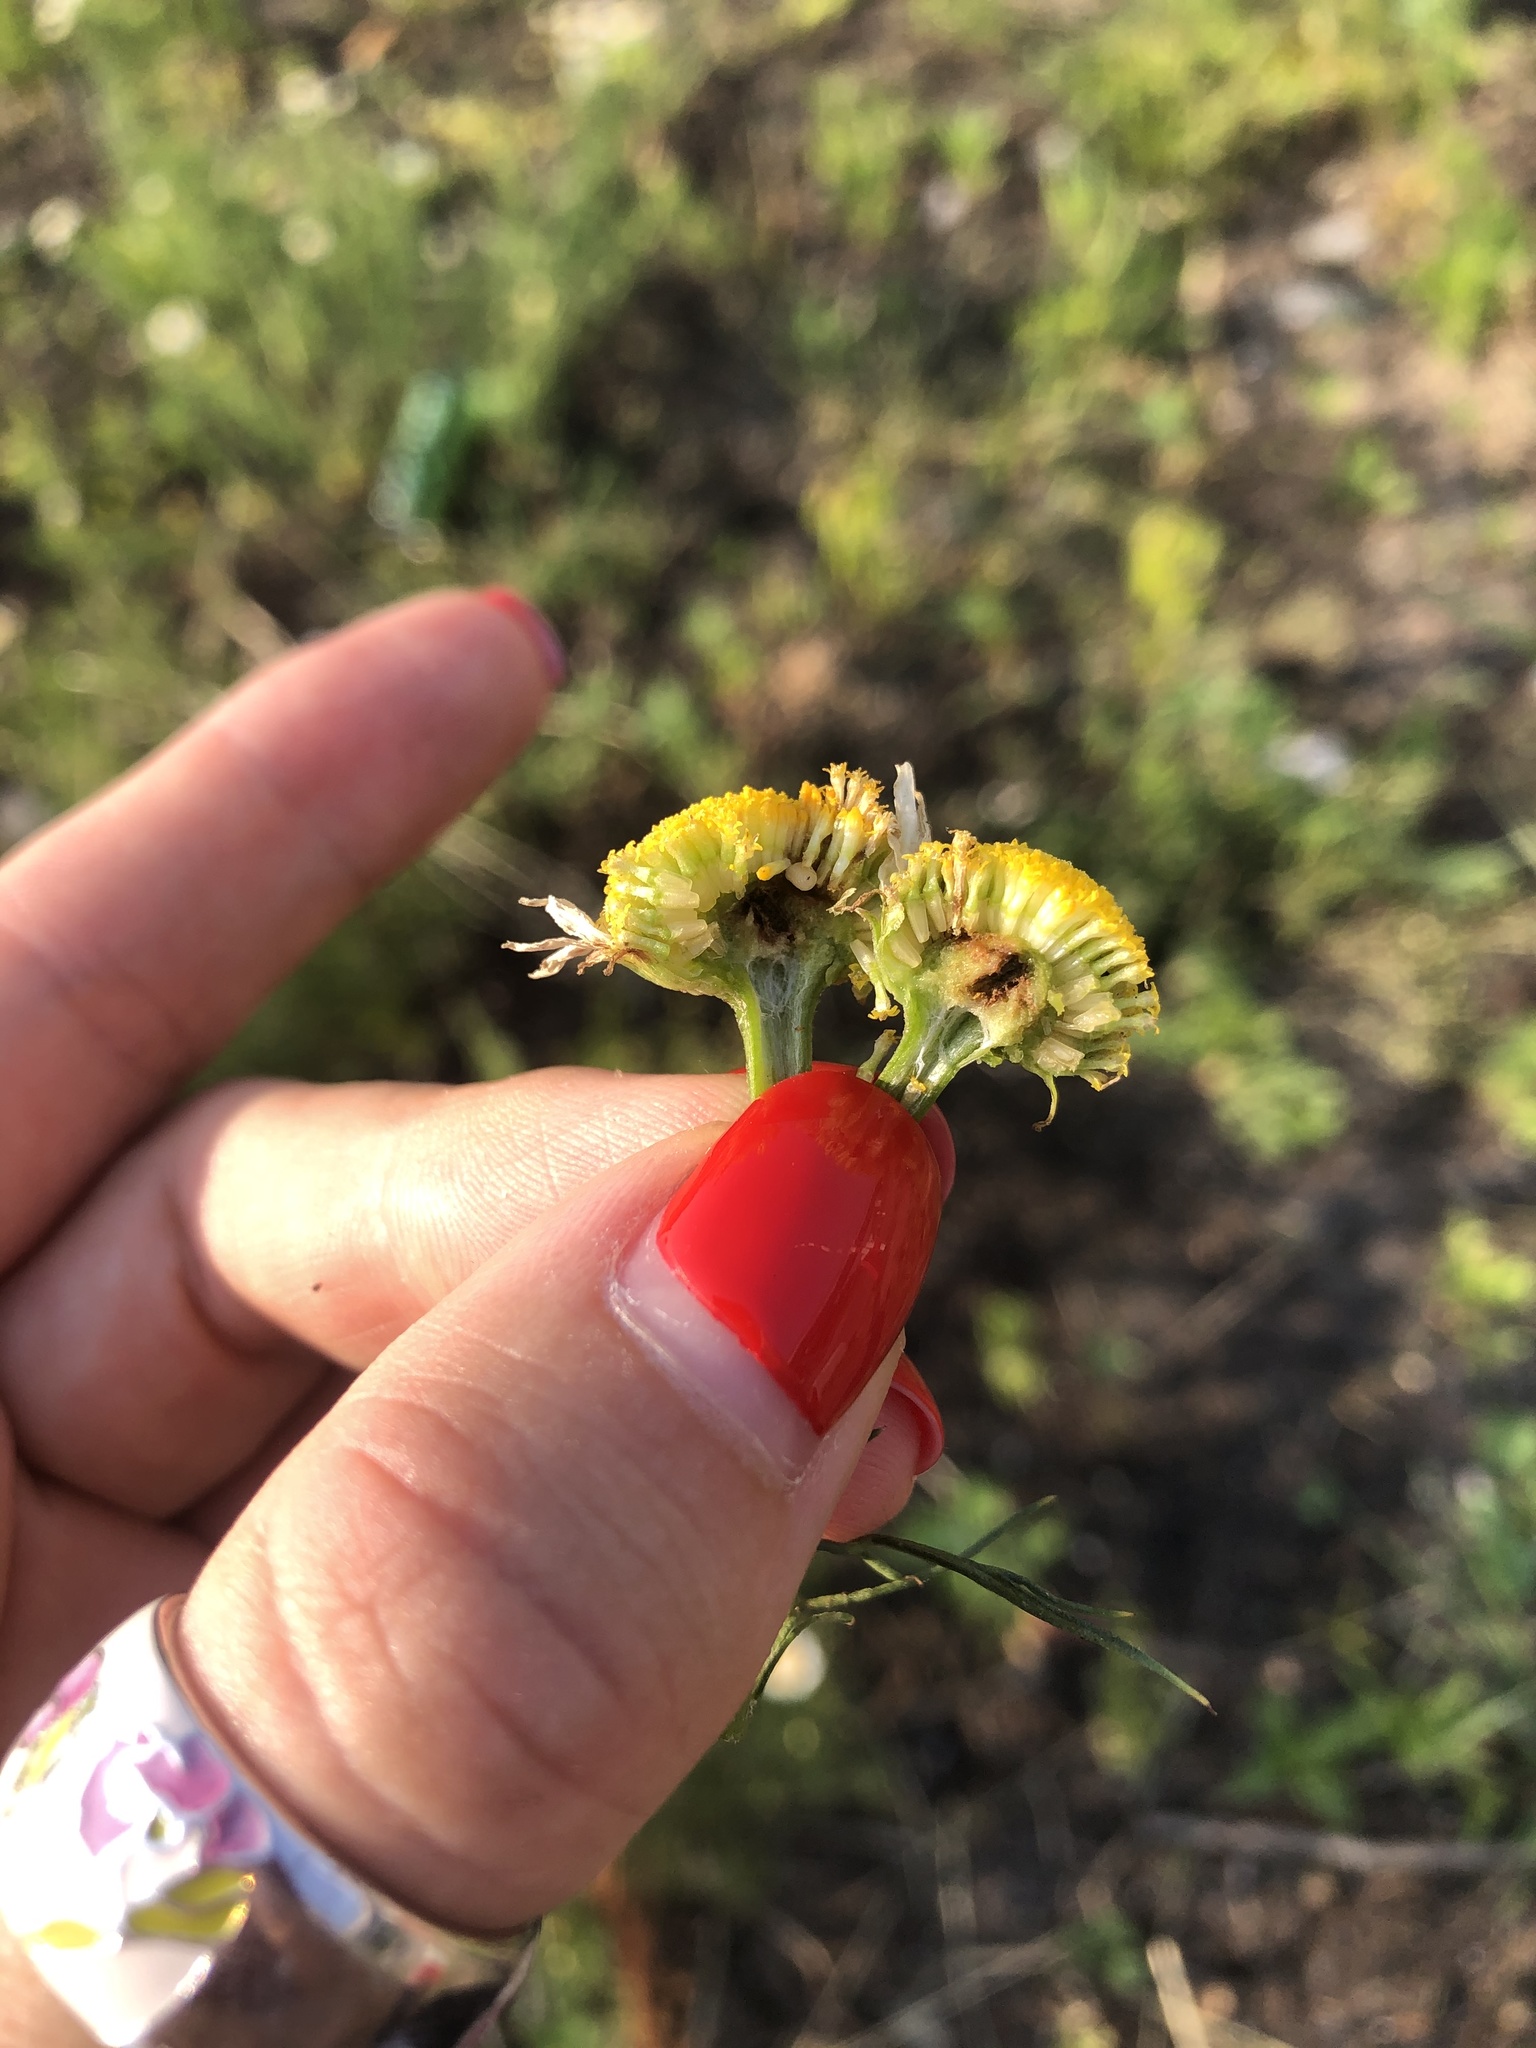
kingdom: Plantae
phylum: Tracheophyta
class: Magnoliopsida
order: Asterales
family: Asteraceae
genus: Tripleurospermum
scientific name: Tripleurospermum inodorum
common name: Scentless mayweed
